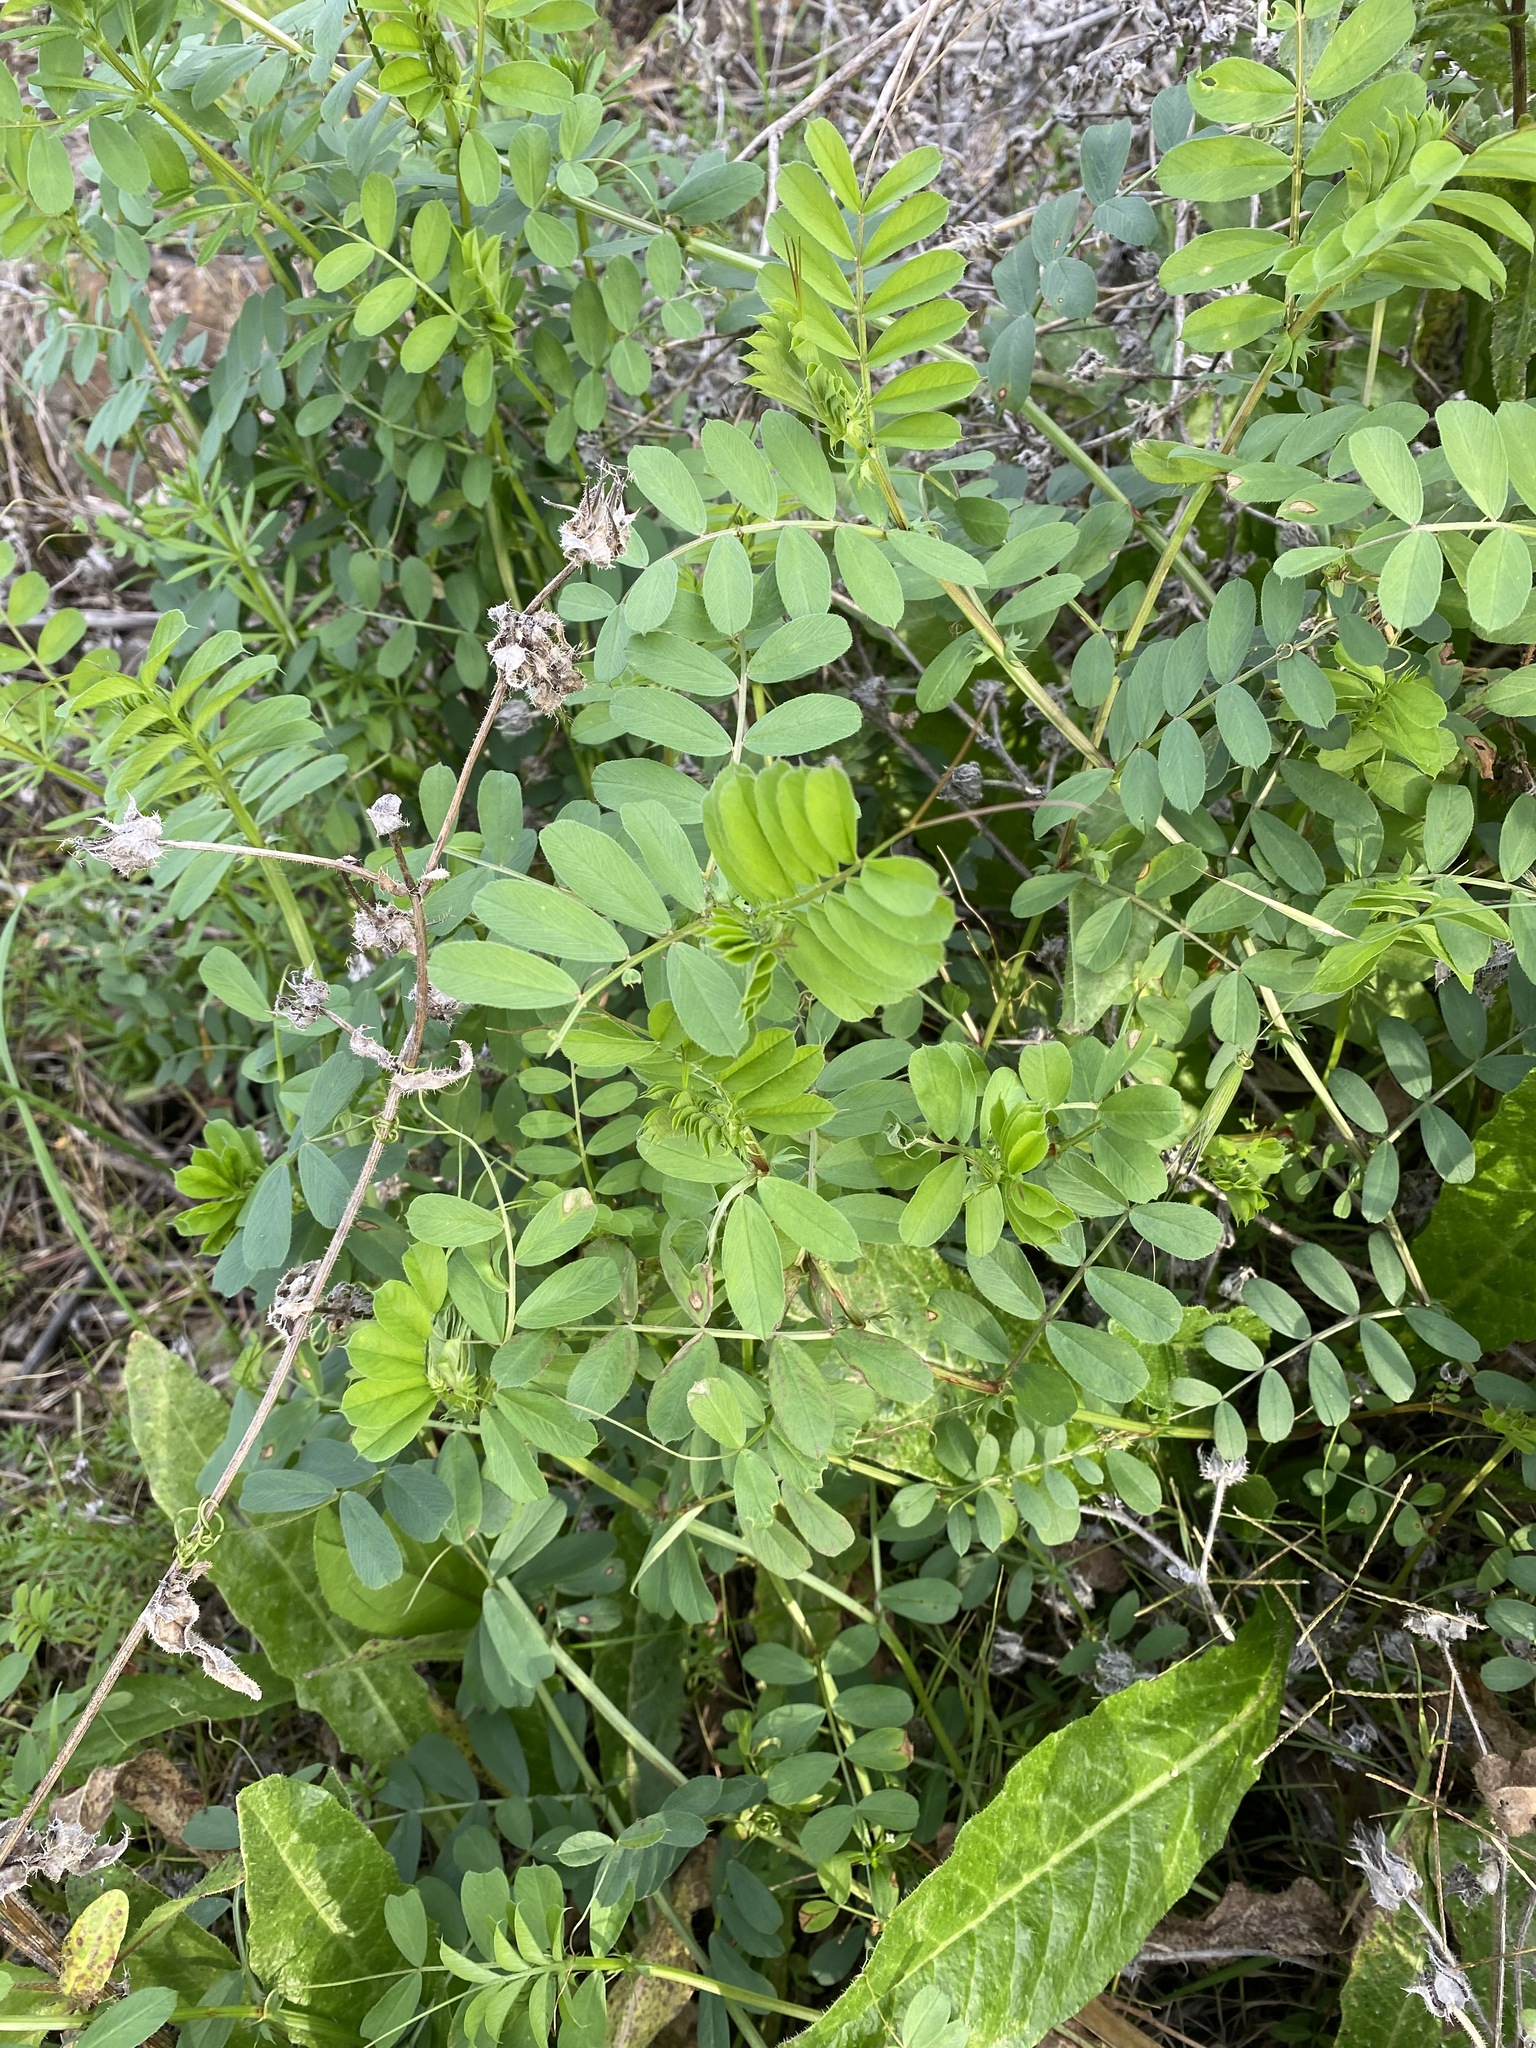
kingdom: Plantae
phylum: Tracheophyta
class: Magnoliopsida
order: Fabales
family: Fabaceae
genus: Vicia
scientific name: Vicia sativa
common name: Garden vetch
